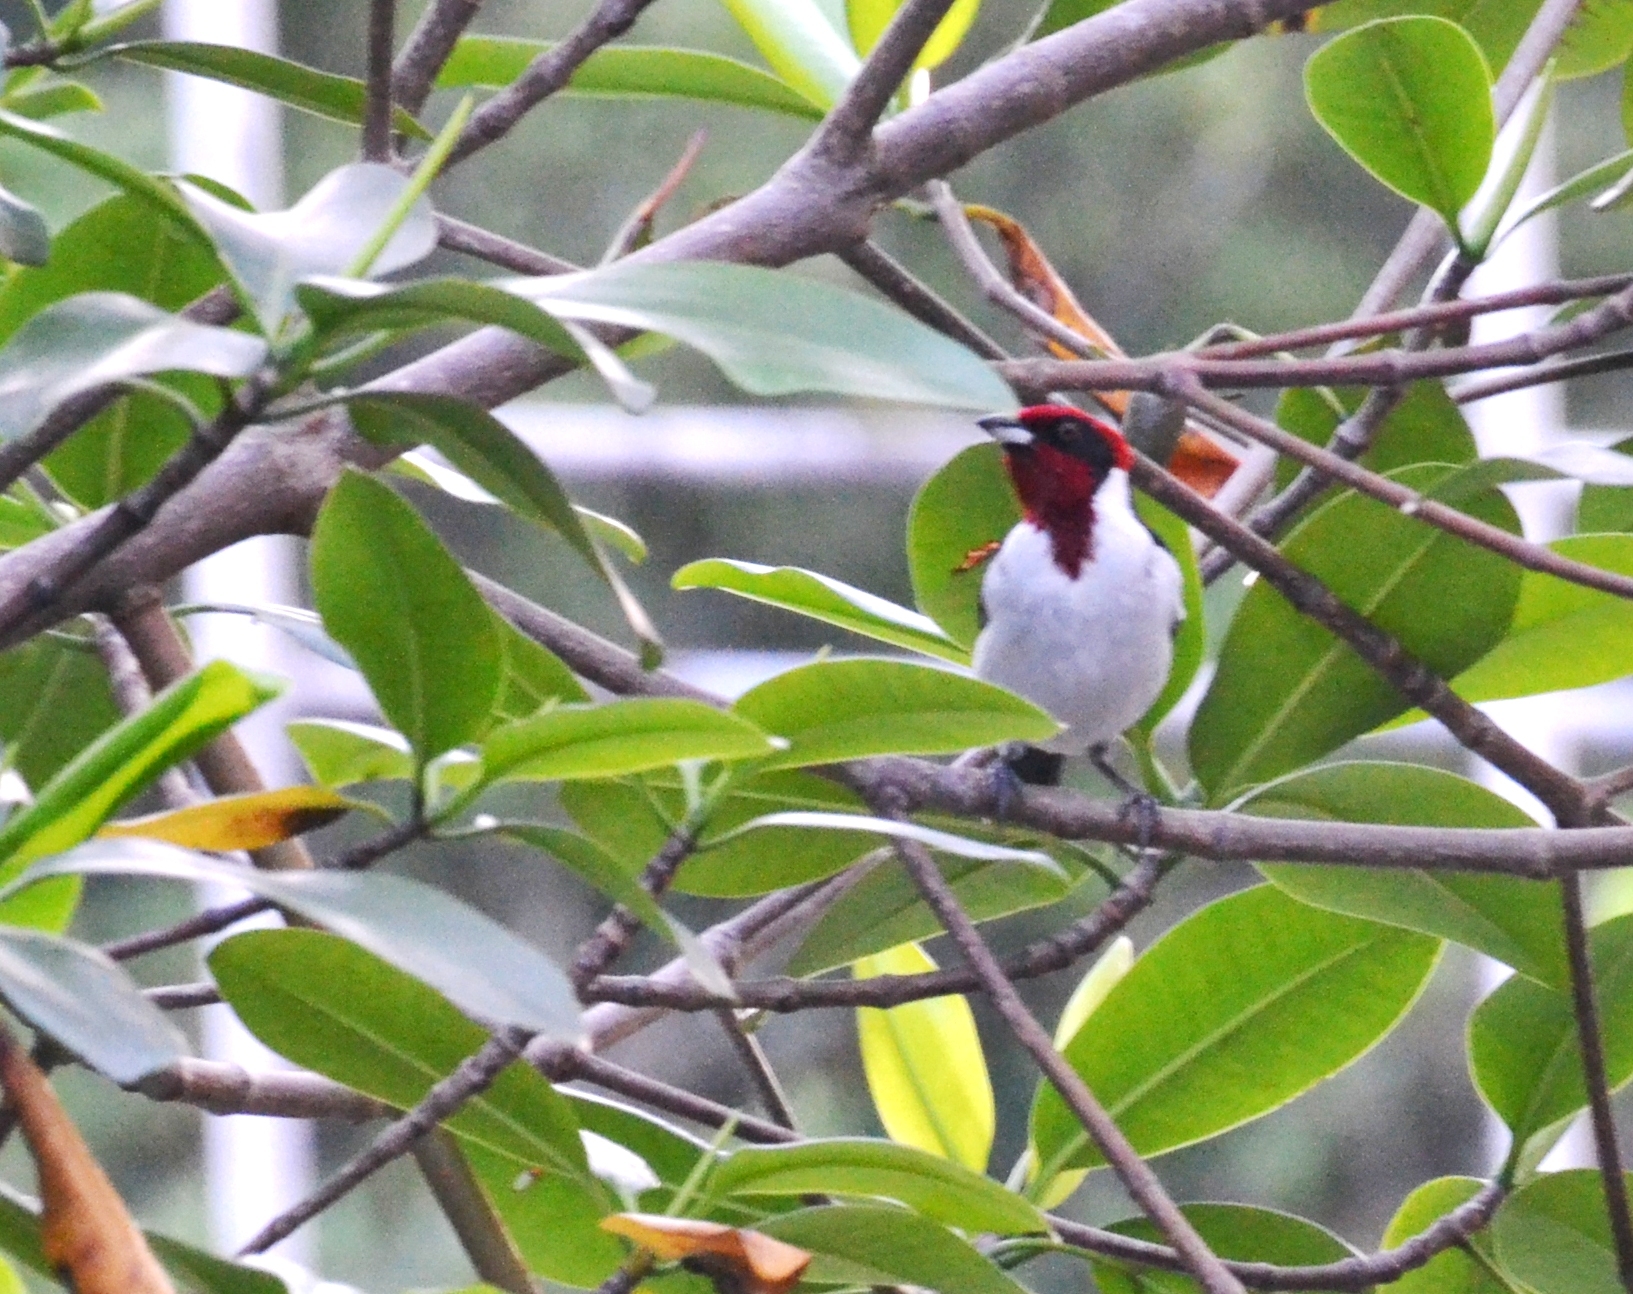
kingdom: Animalia
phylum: Chordata
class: Aves
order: Passeriformes
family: Thraupidae
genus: Paroaria
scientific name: Paroaria nigrogenis
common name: Masked cardinal
